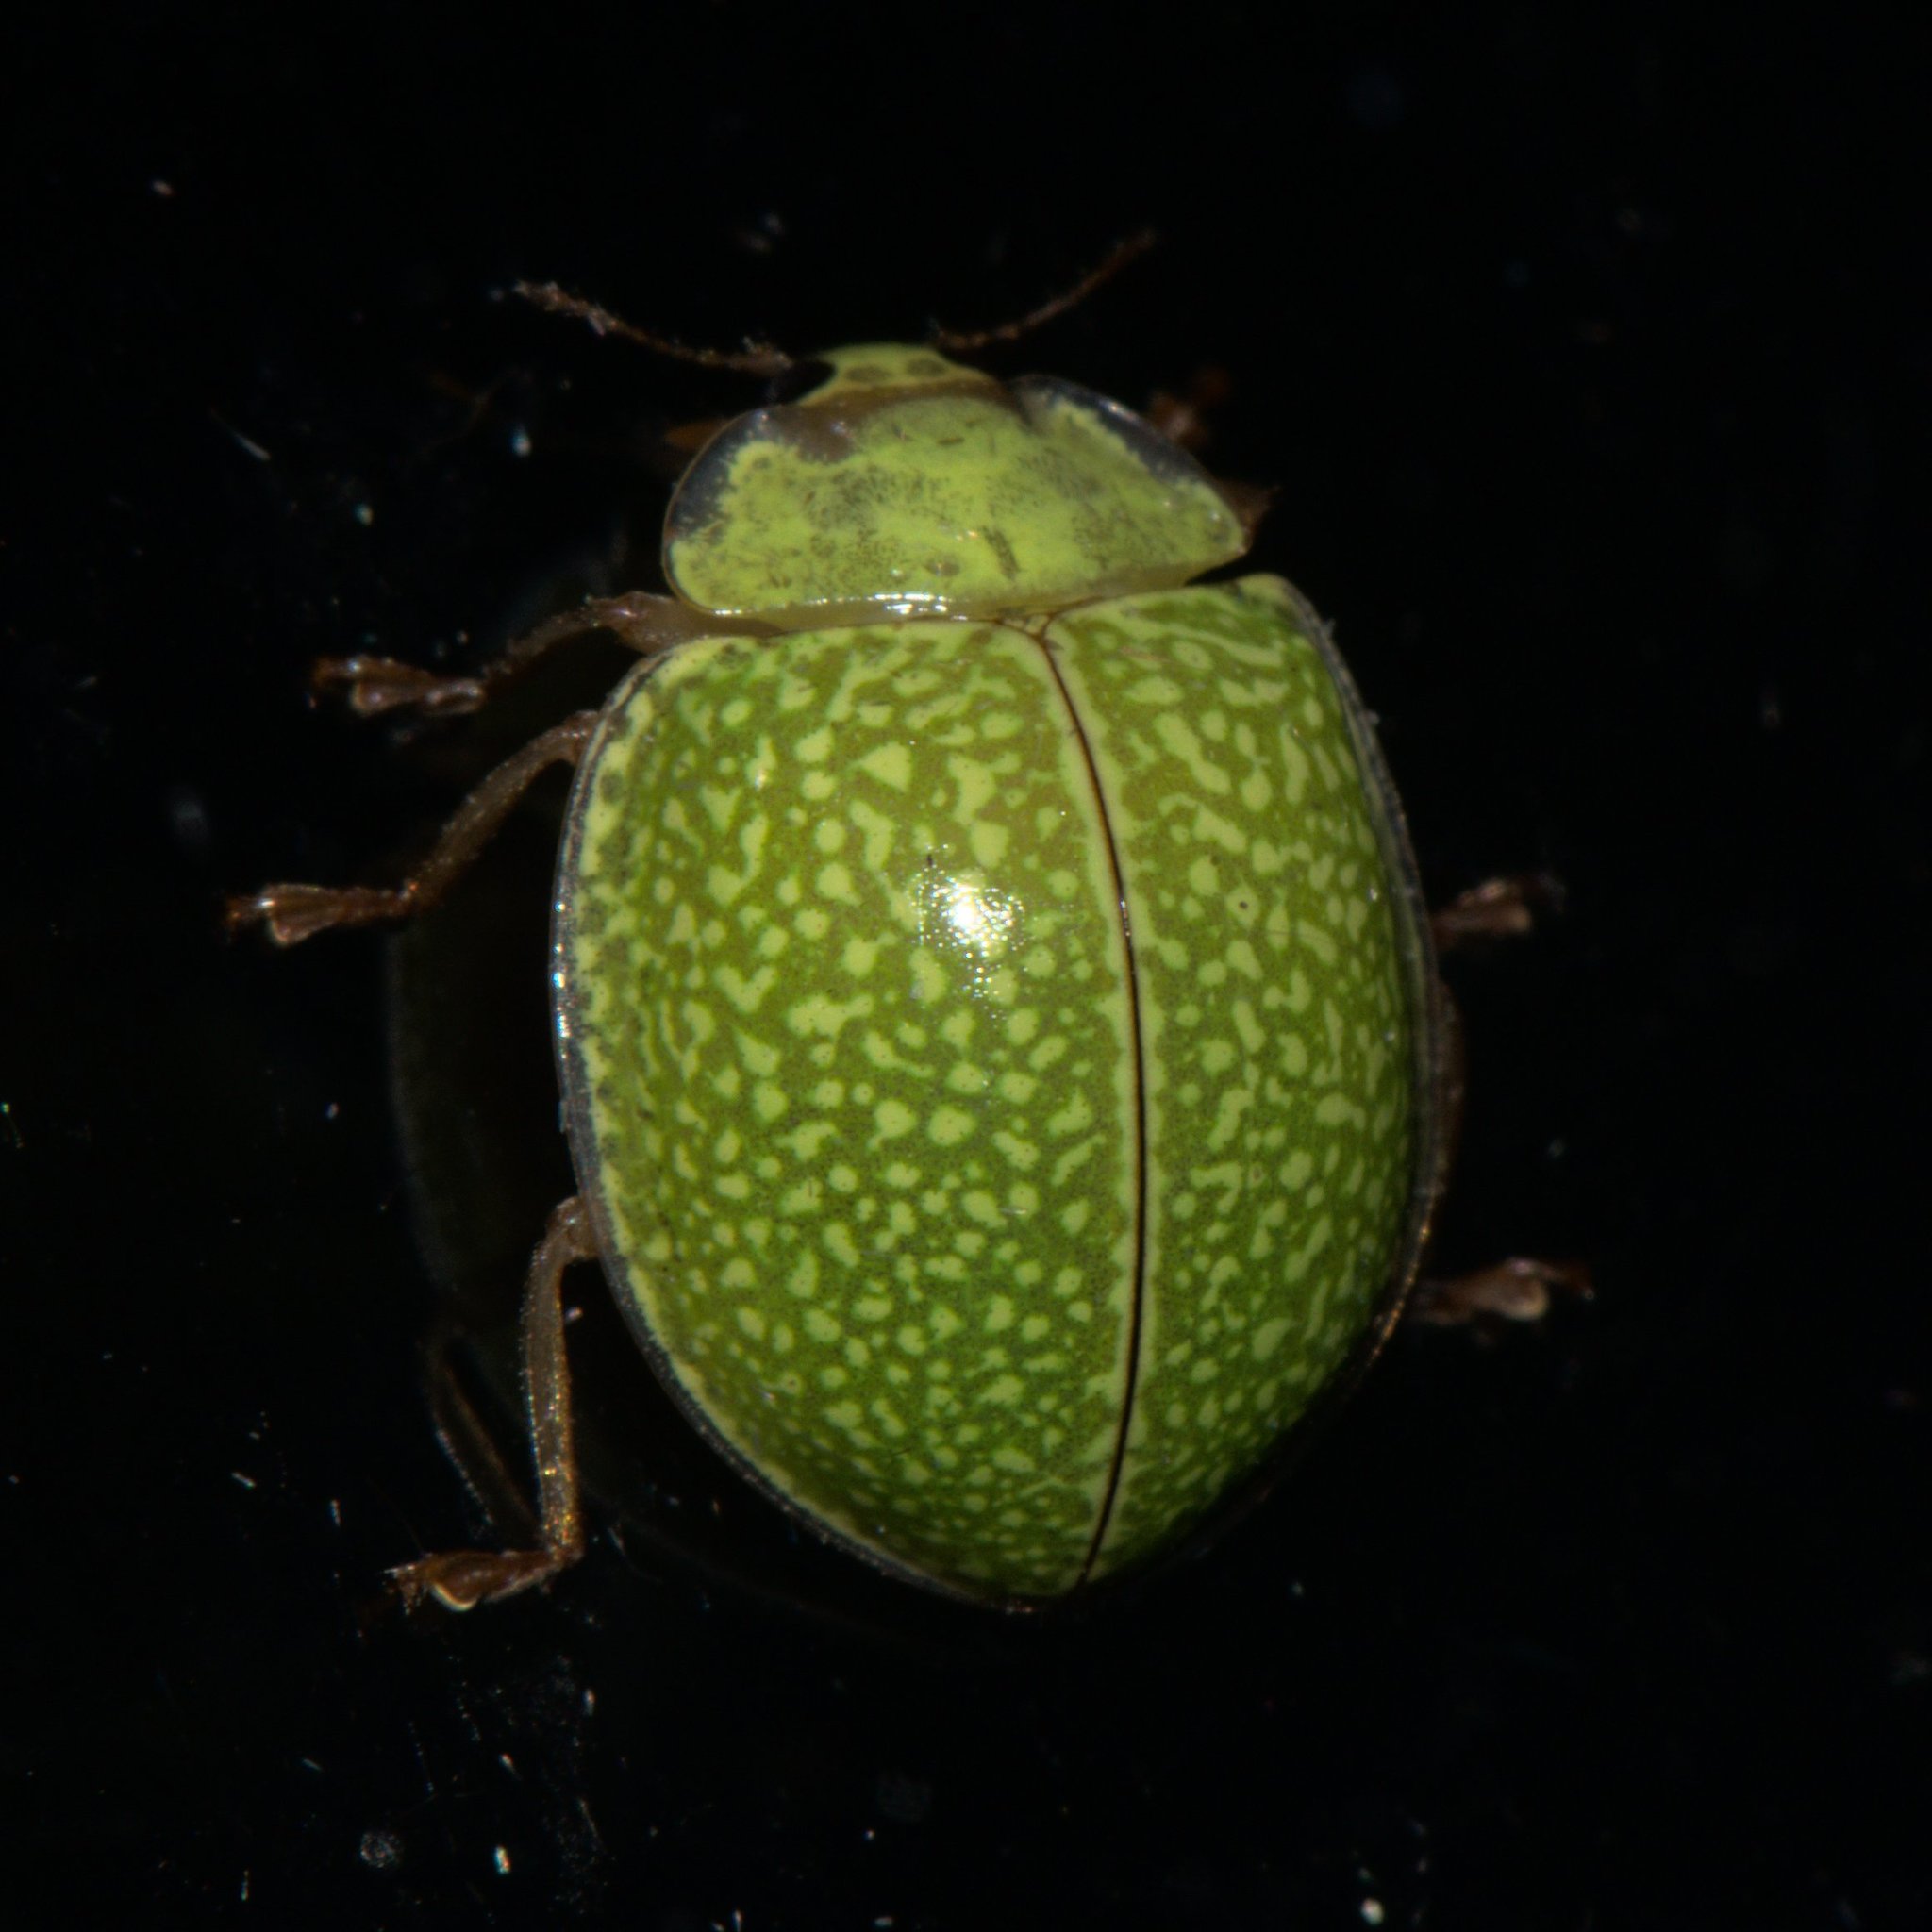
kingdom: Animalia
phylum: Arthropoda
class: Insecta
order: Coleoptera
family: Coccinellidae
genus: Calvia
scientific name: Calvia
